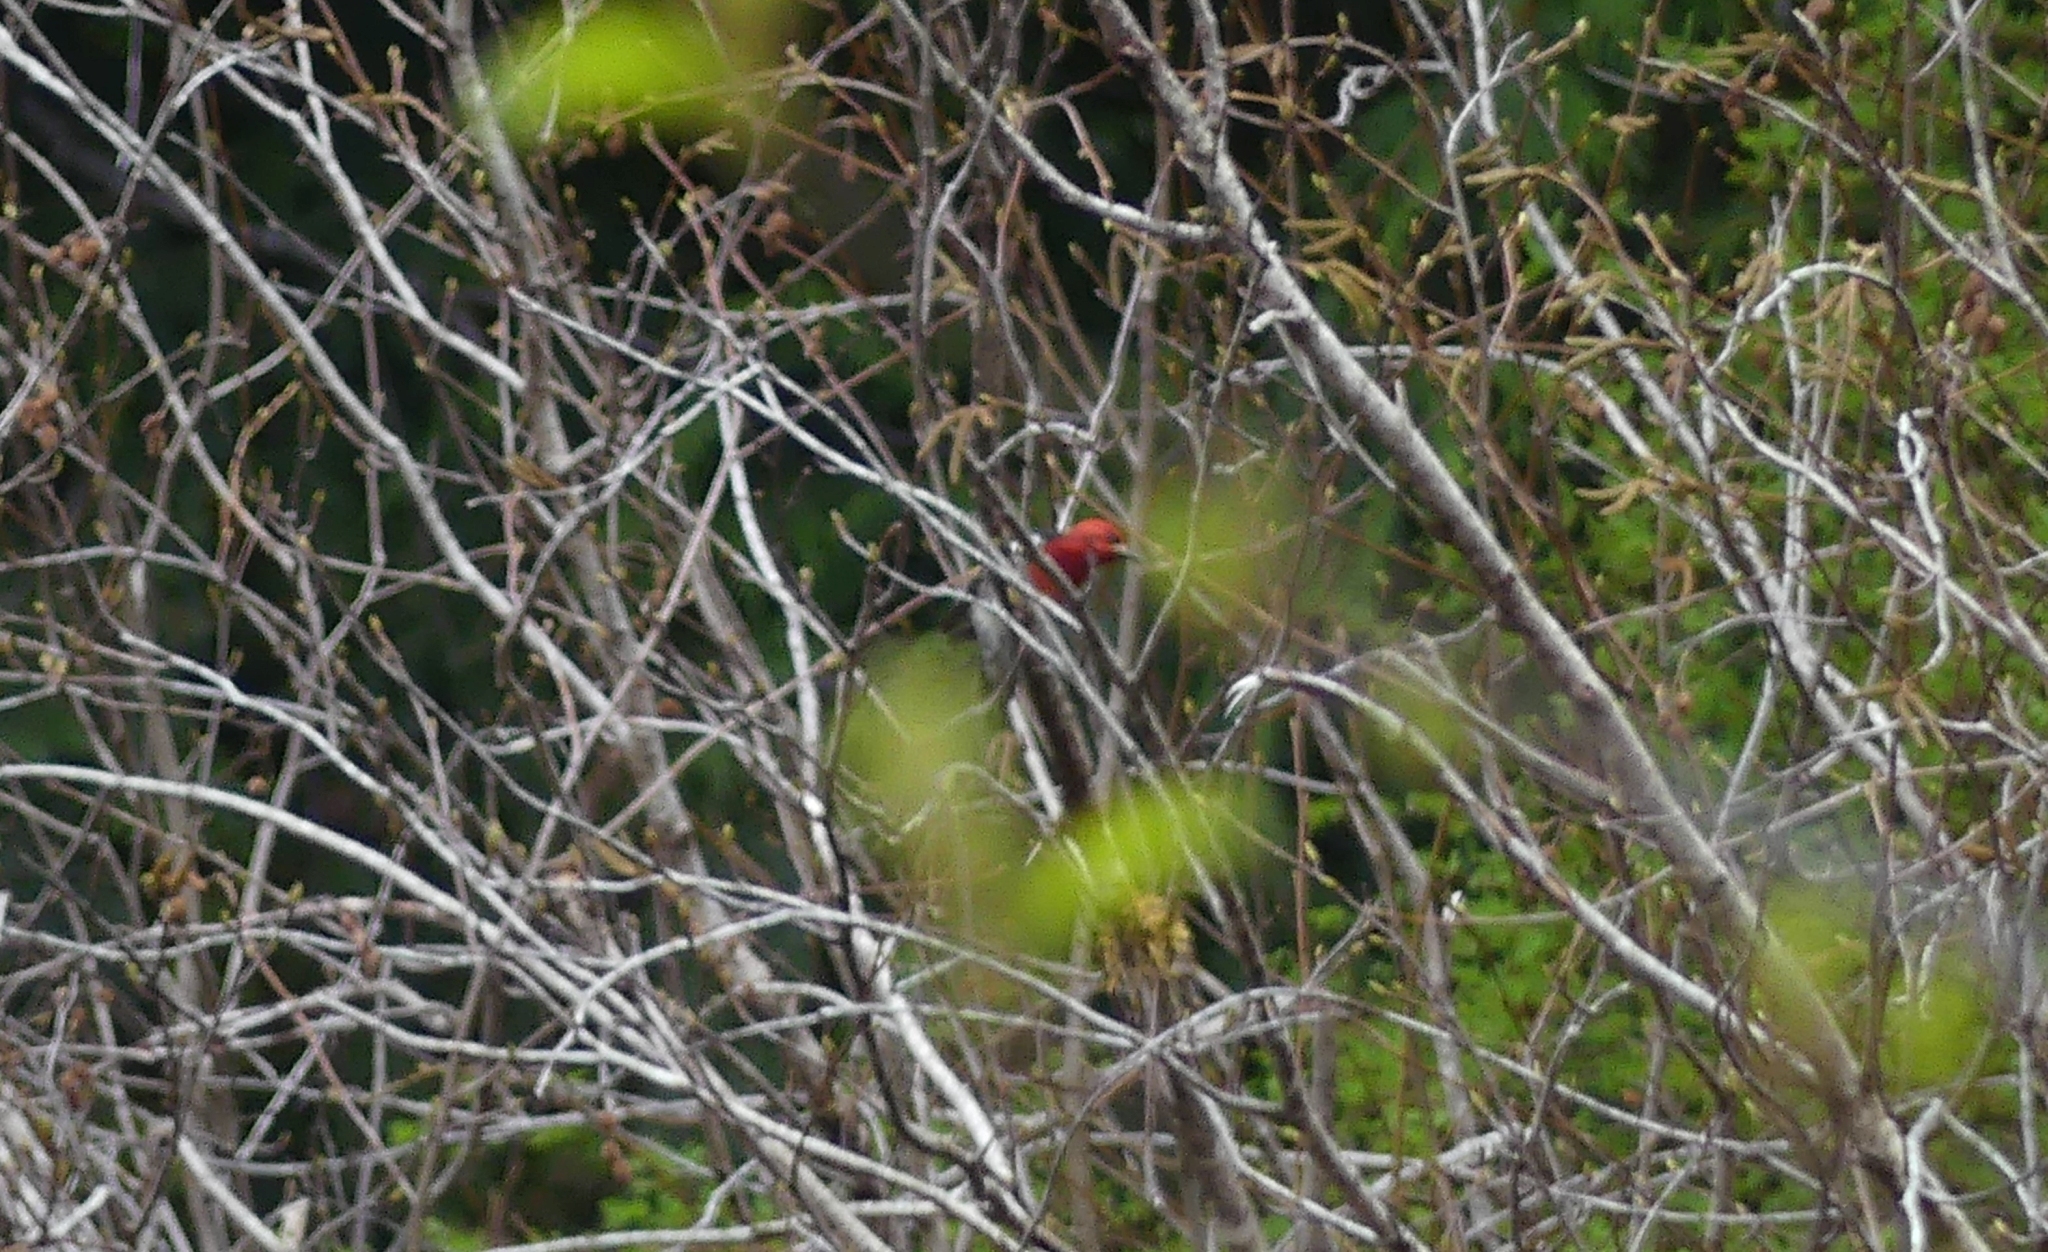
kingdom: Animalia
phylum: Chordata
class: Aves
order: Piciformes
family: Picidae
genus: Sphyrapicus
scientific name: Sphyrapicus ruber
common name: Red-breasted sapsucker
